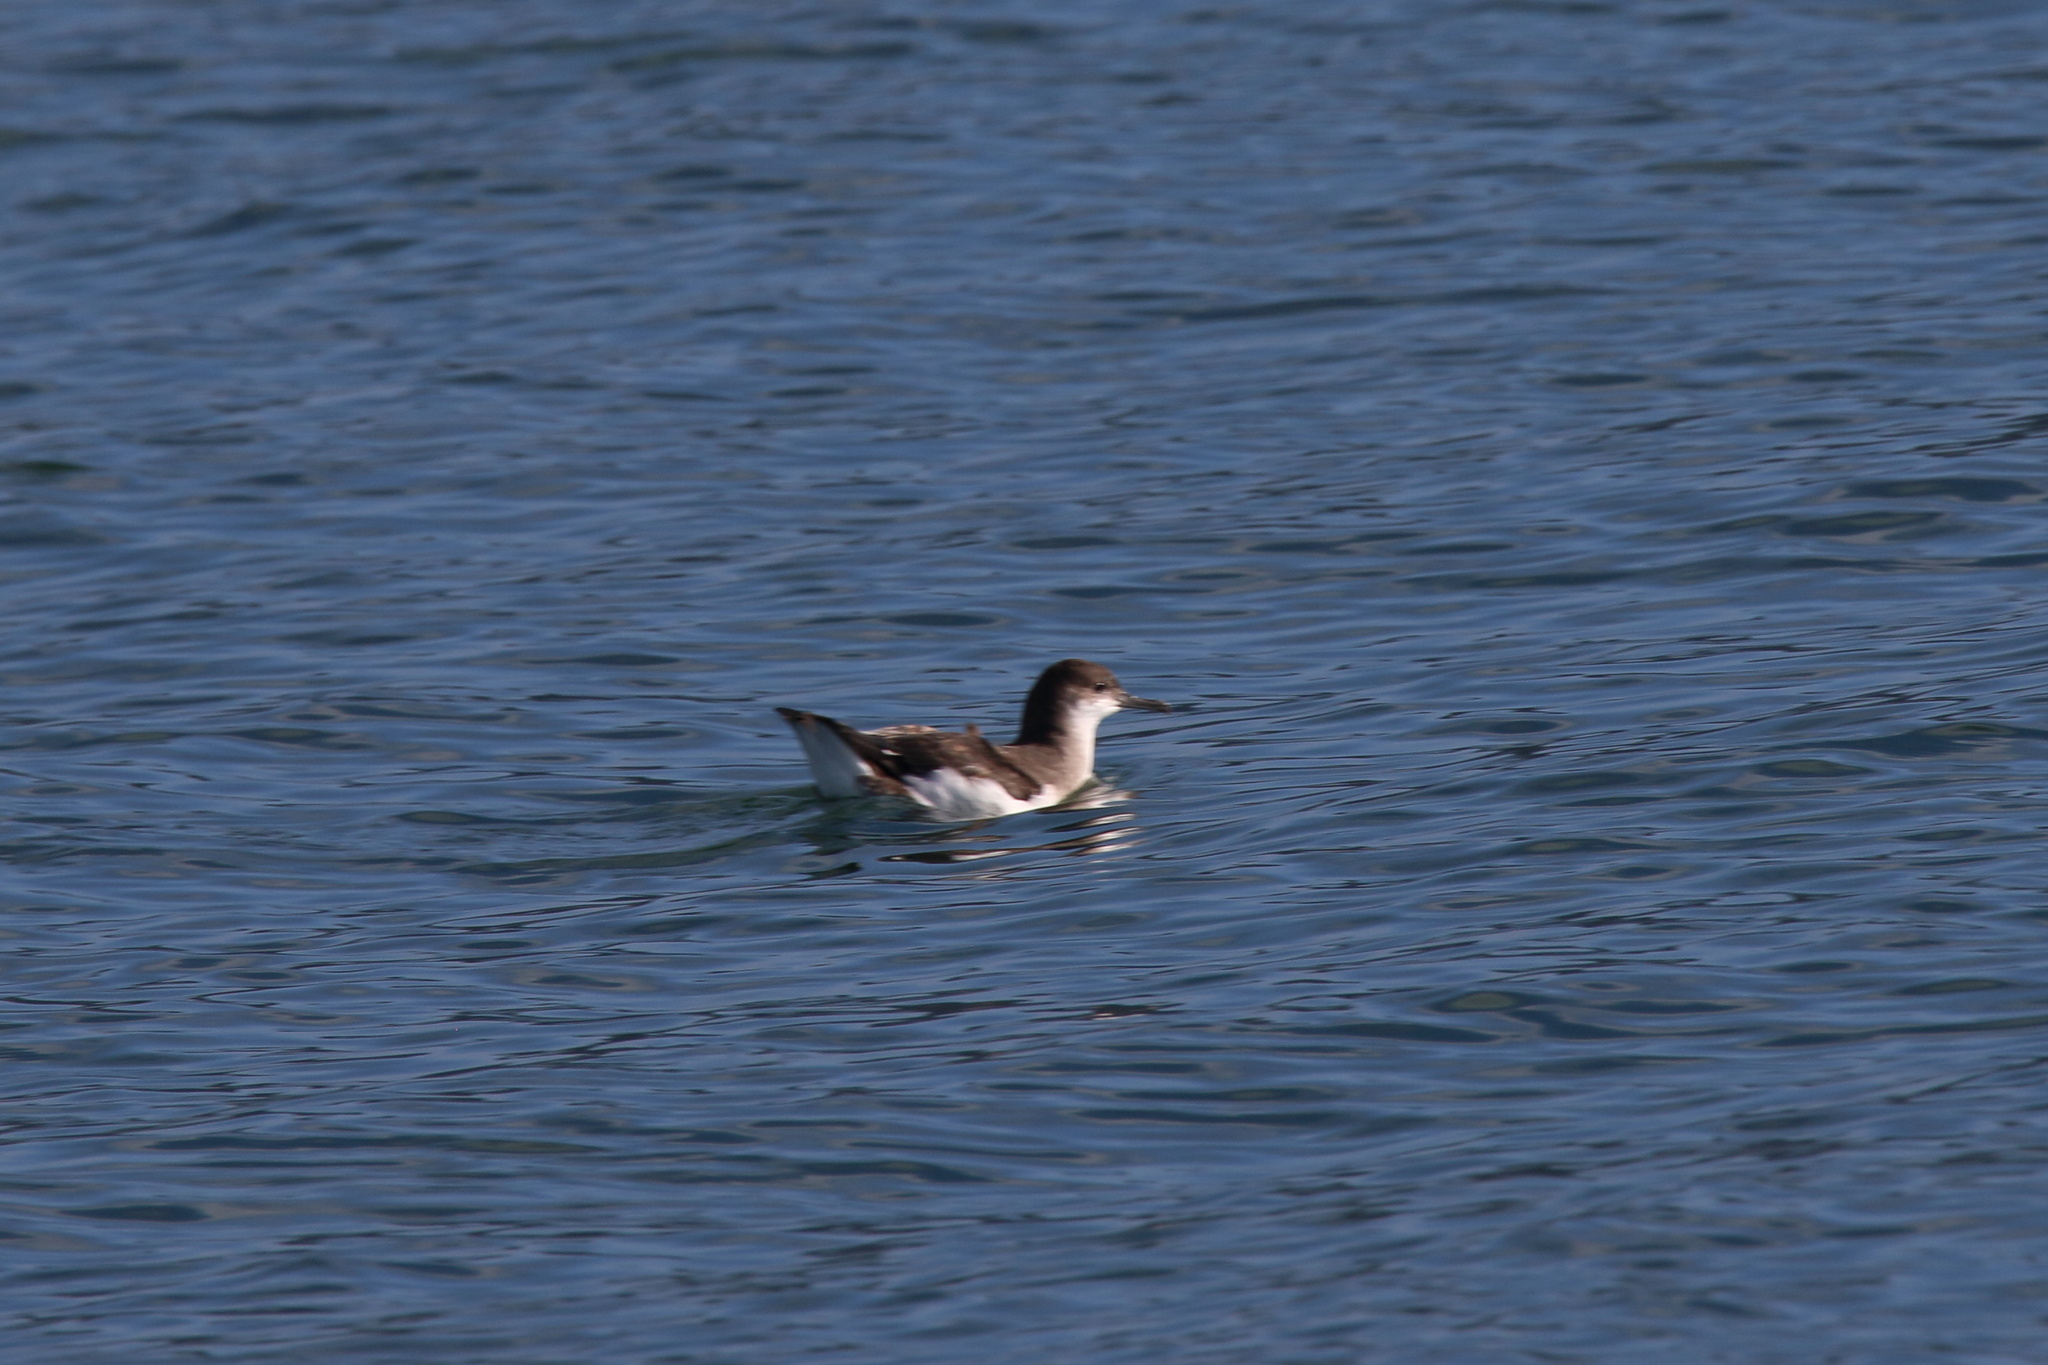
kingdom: Animalia
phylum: Chordata
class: Aves
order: Procellariiformes
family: Procellariidae
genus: Puffinus
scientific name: Puffinus gavia
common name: Fluttering shearwater
